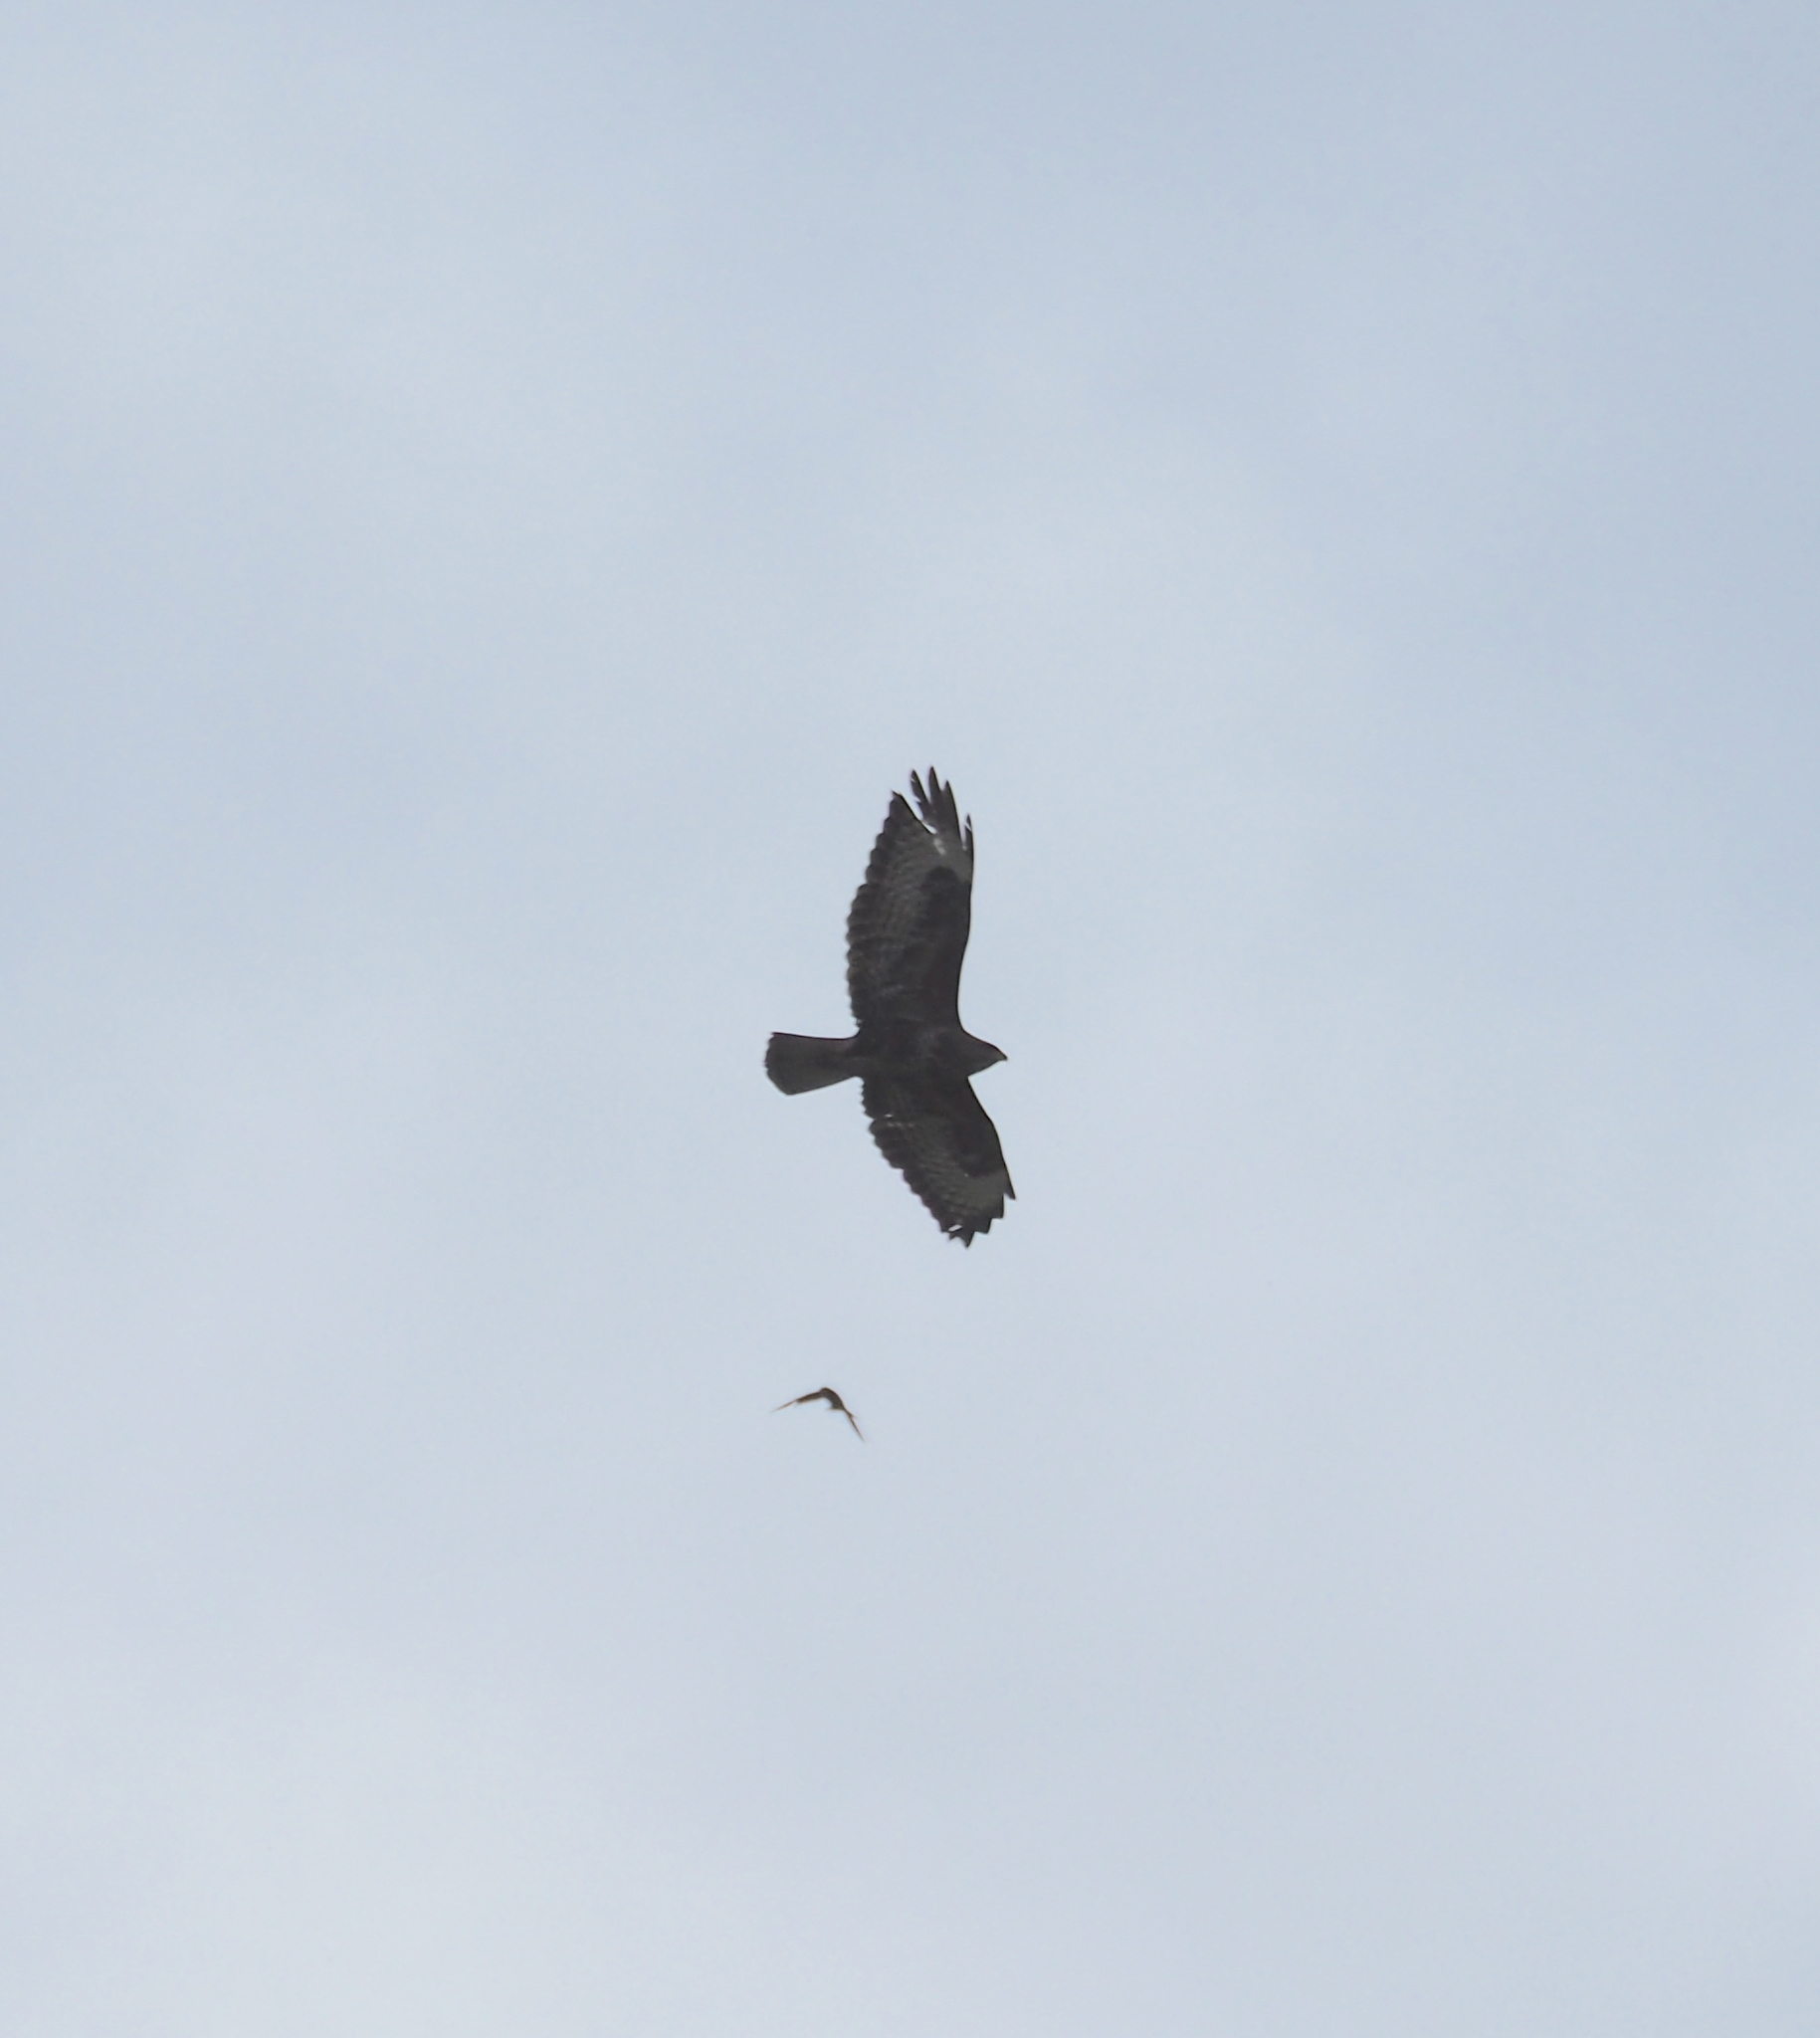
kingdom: Animalia
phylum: Chordata
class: Aves
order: Accipitriformes
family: Accipitridae
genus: Buteo
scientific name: Buteo buteo
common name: Common buzzard
